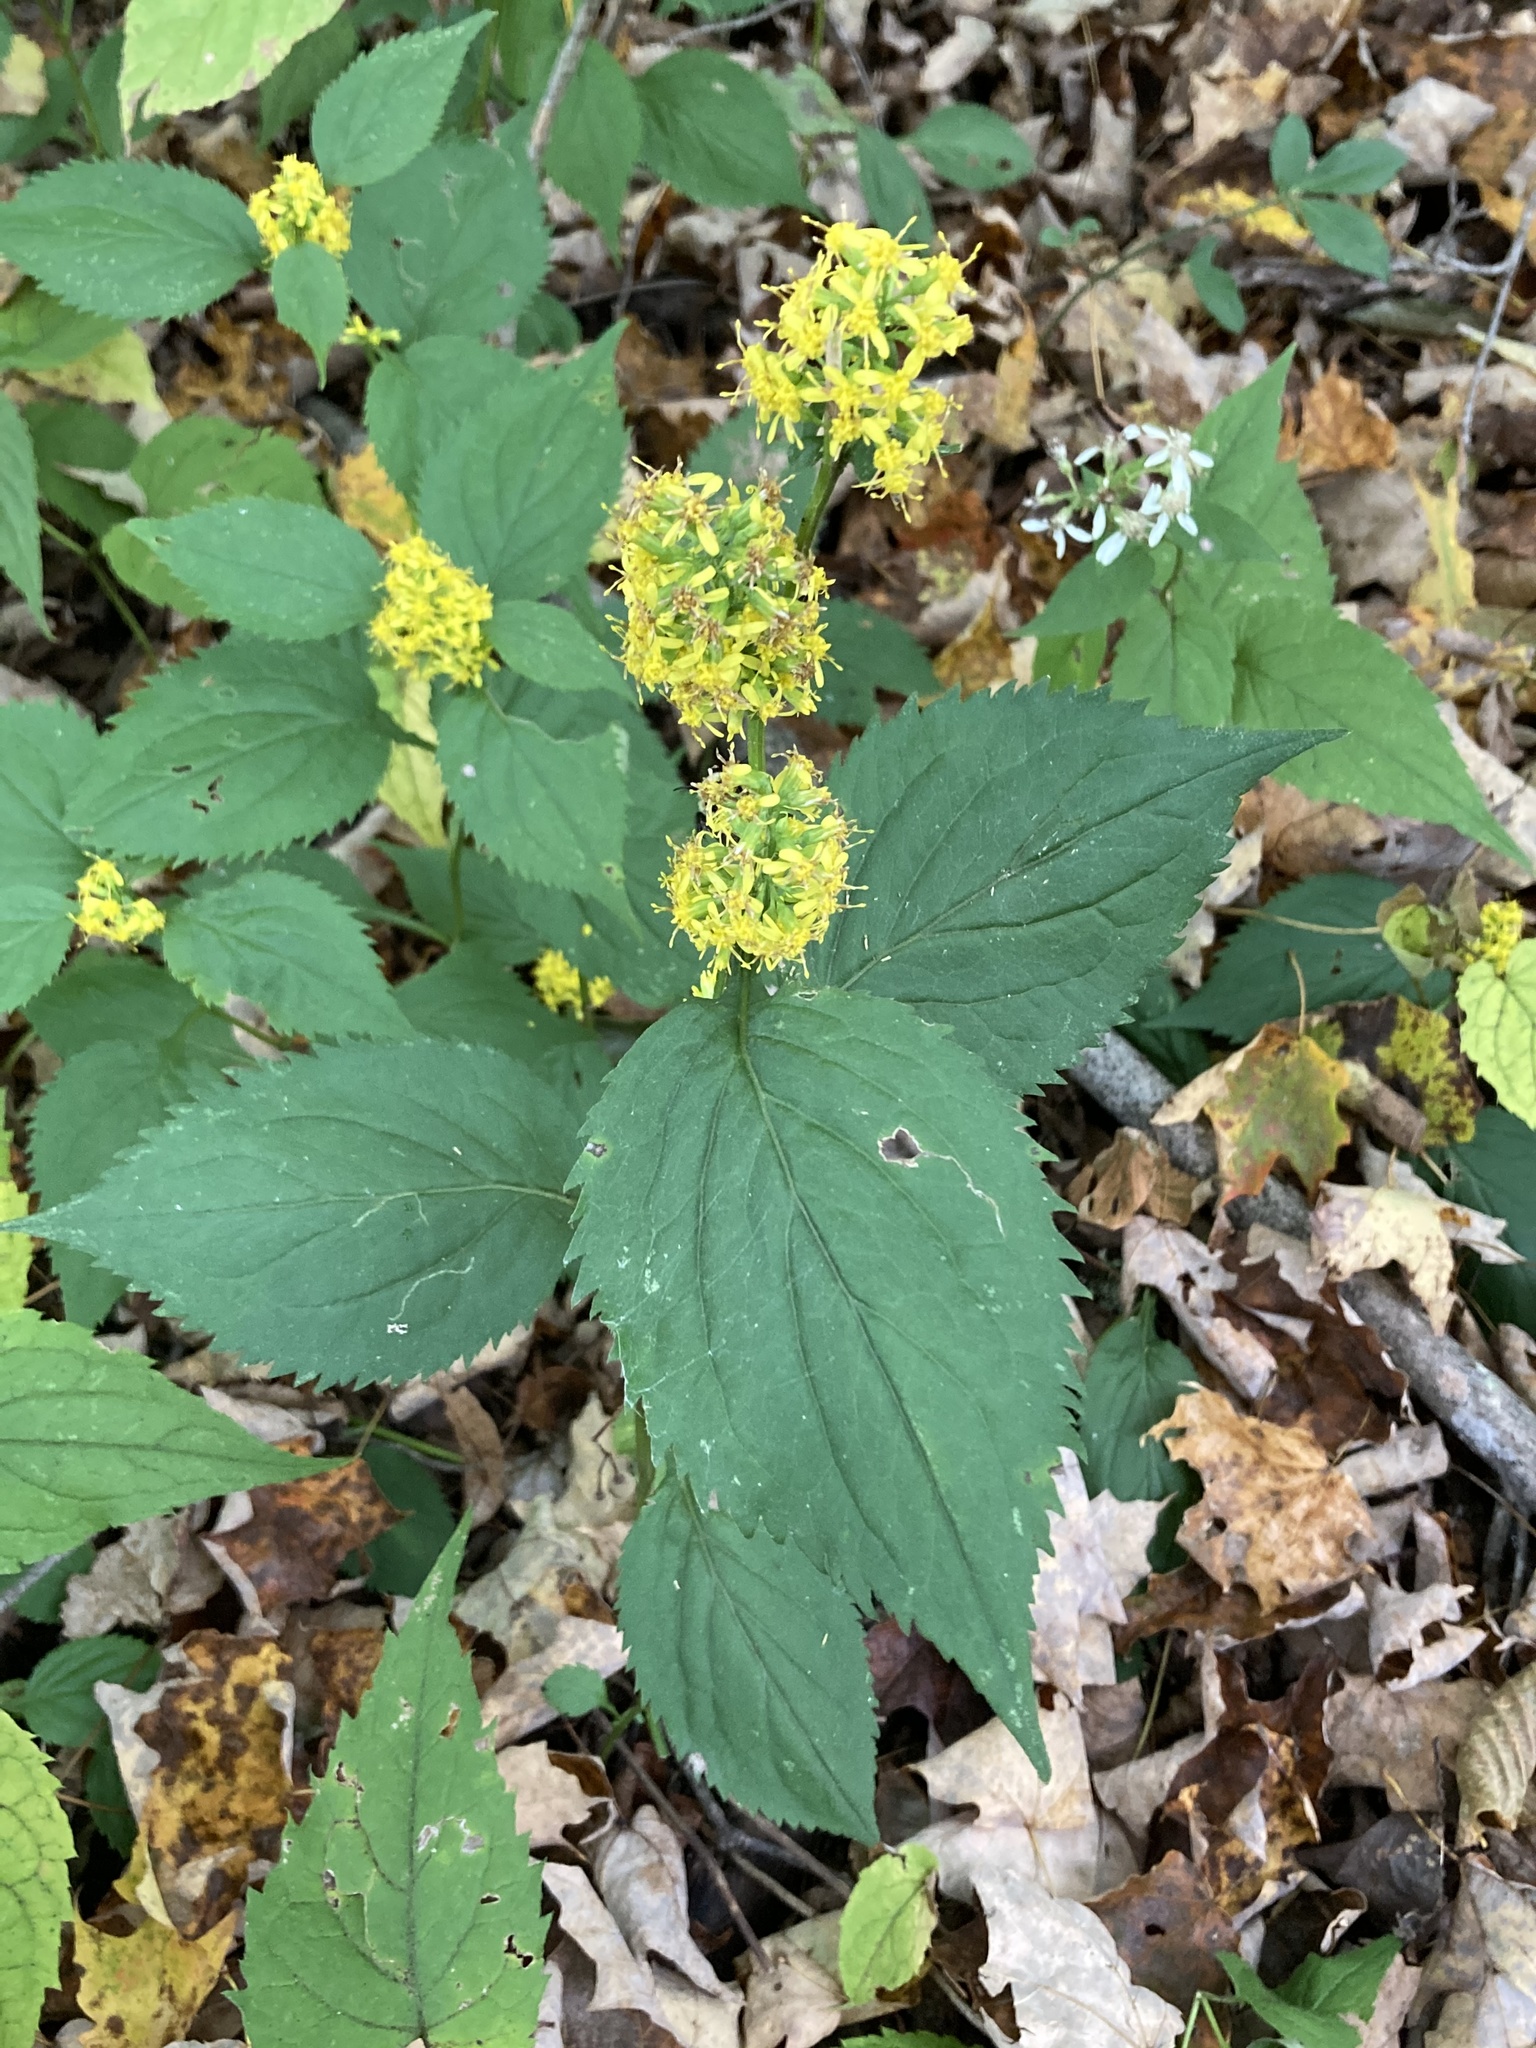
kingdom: Plantae
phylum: Tracheophyta
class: Magnoliopsida
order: Asterales
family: Asteraceae
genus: Solidago
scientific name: Solidago flexicaulis
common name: Zig-zag goldenrod
